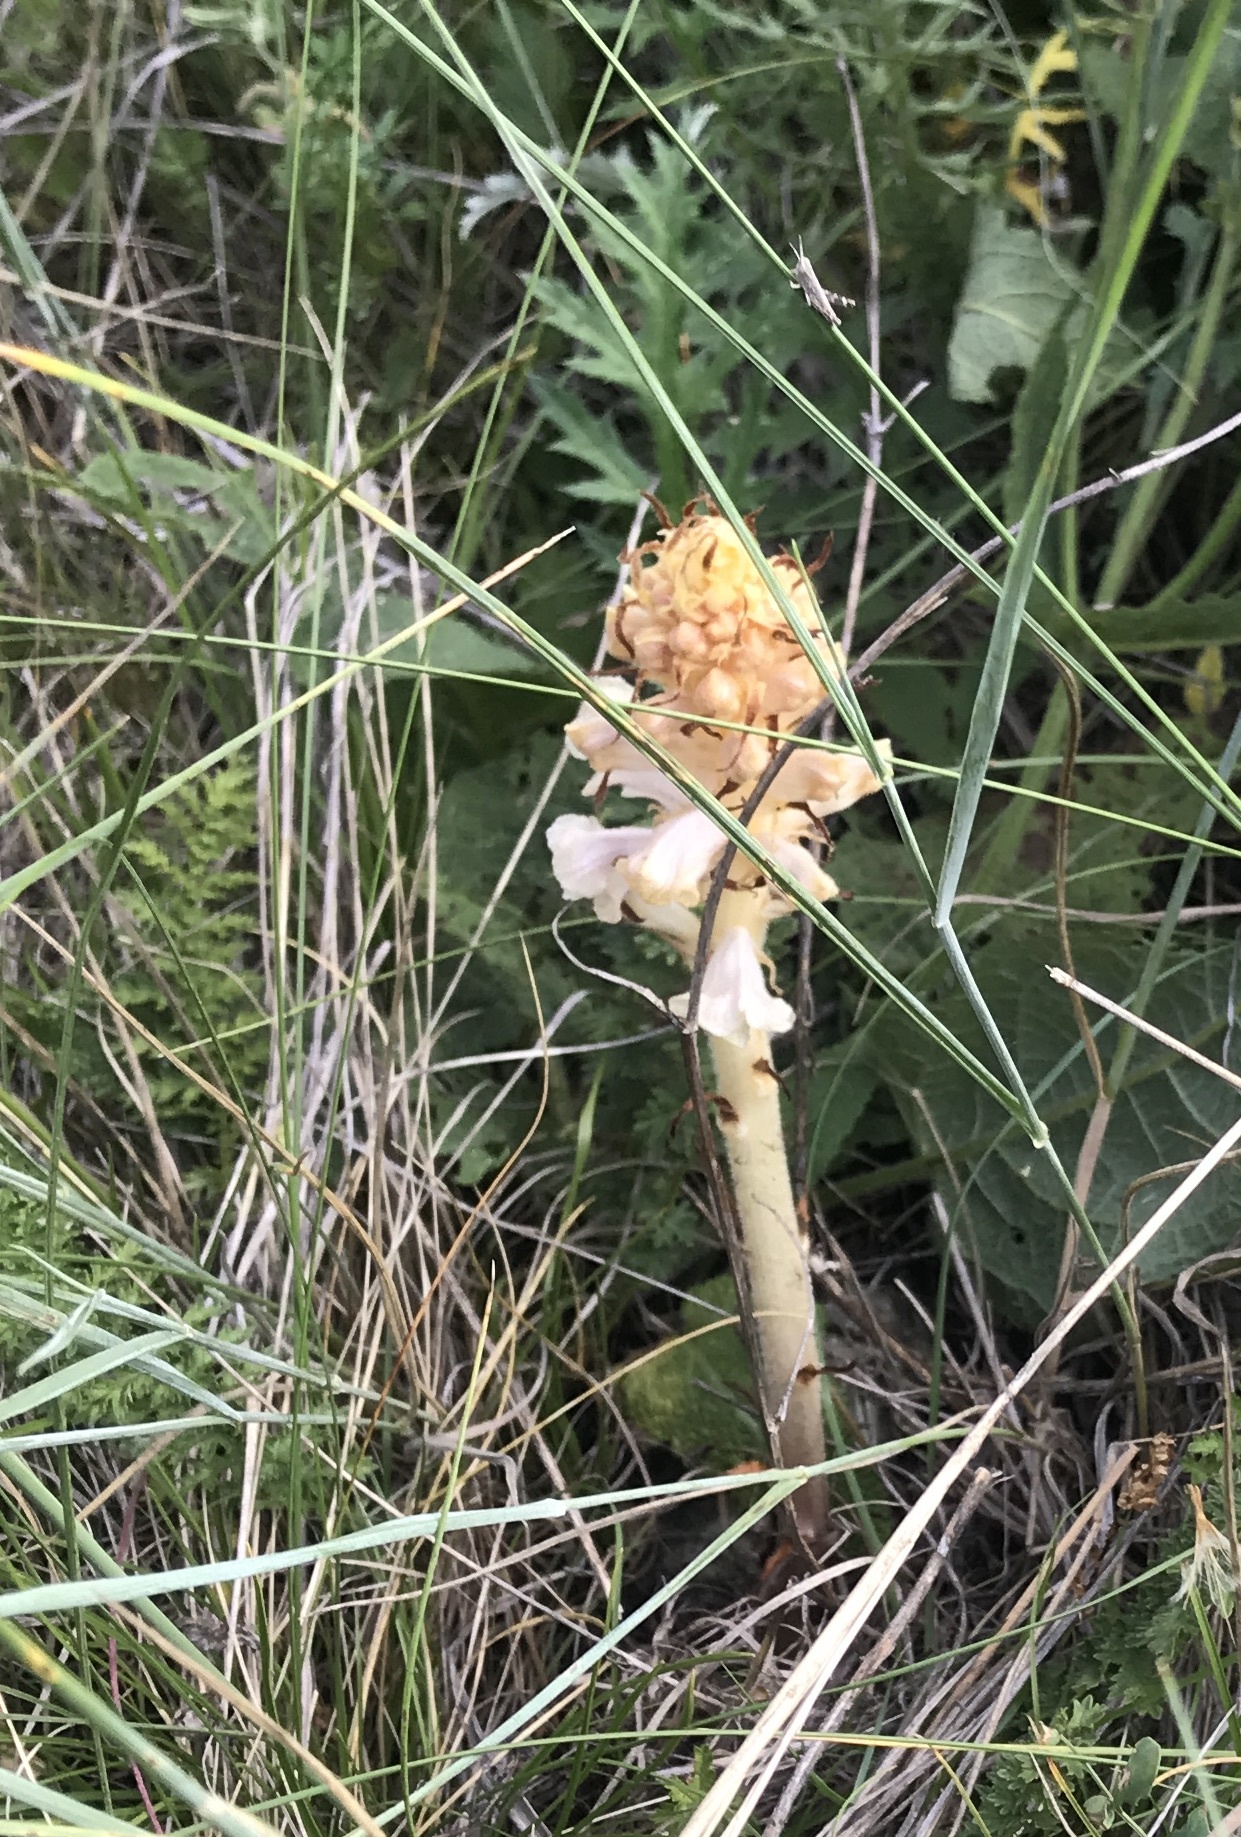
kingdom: Plantae
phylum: Tracheophyta
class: Magnoliopsida
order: Lamiales
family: Orobanchaceae
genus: Orobanche
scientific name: Orobanche alba
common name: Thyme broomrape
